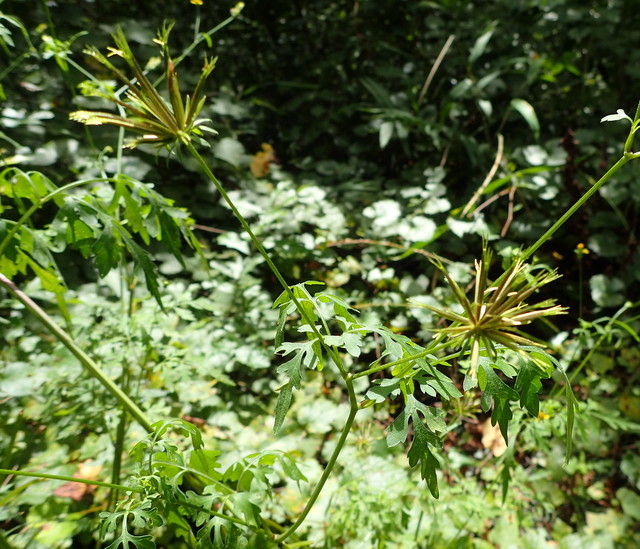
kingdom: Plantae
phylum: Tracheophyta
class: Magnoliopsida
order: Asterales
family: Asteraceae
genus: Bidens
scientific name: Bidens alba
